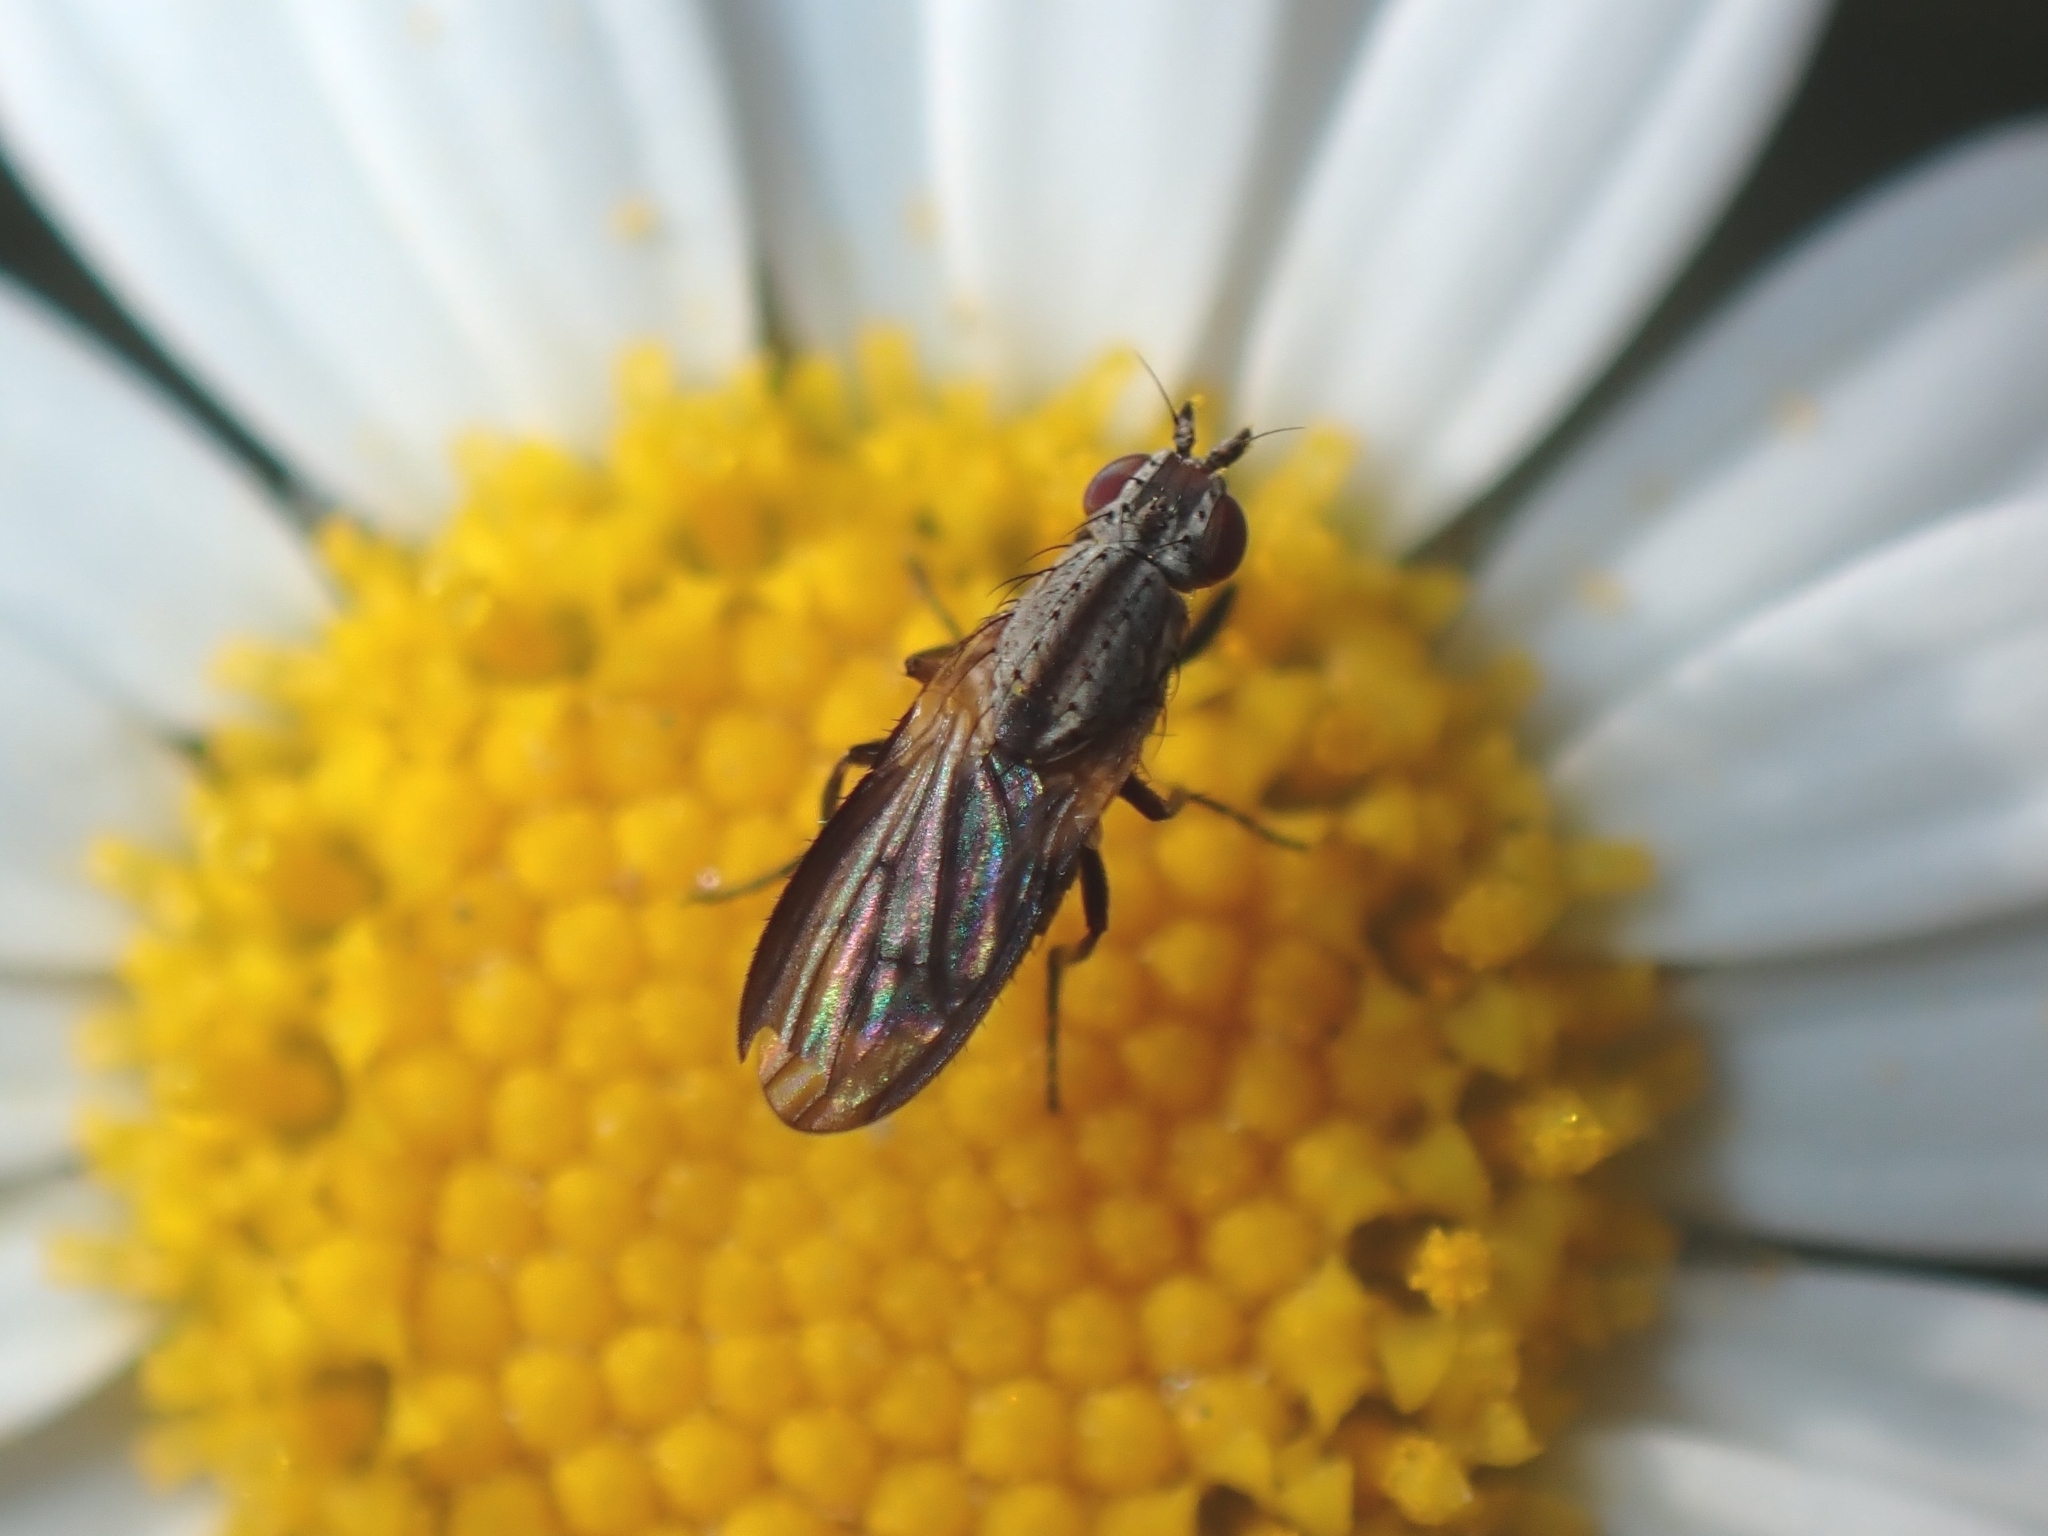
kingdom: Animalia
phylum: Arthropoda
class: Insecta
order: Diptera
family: Heleomyzidae
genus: Trixoscelis
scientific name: Trixoscelis puncticornis
